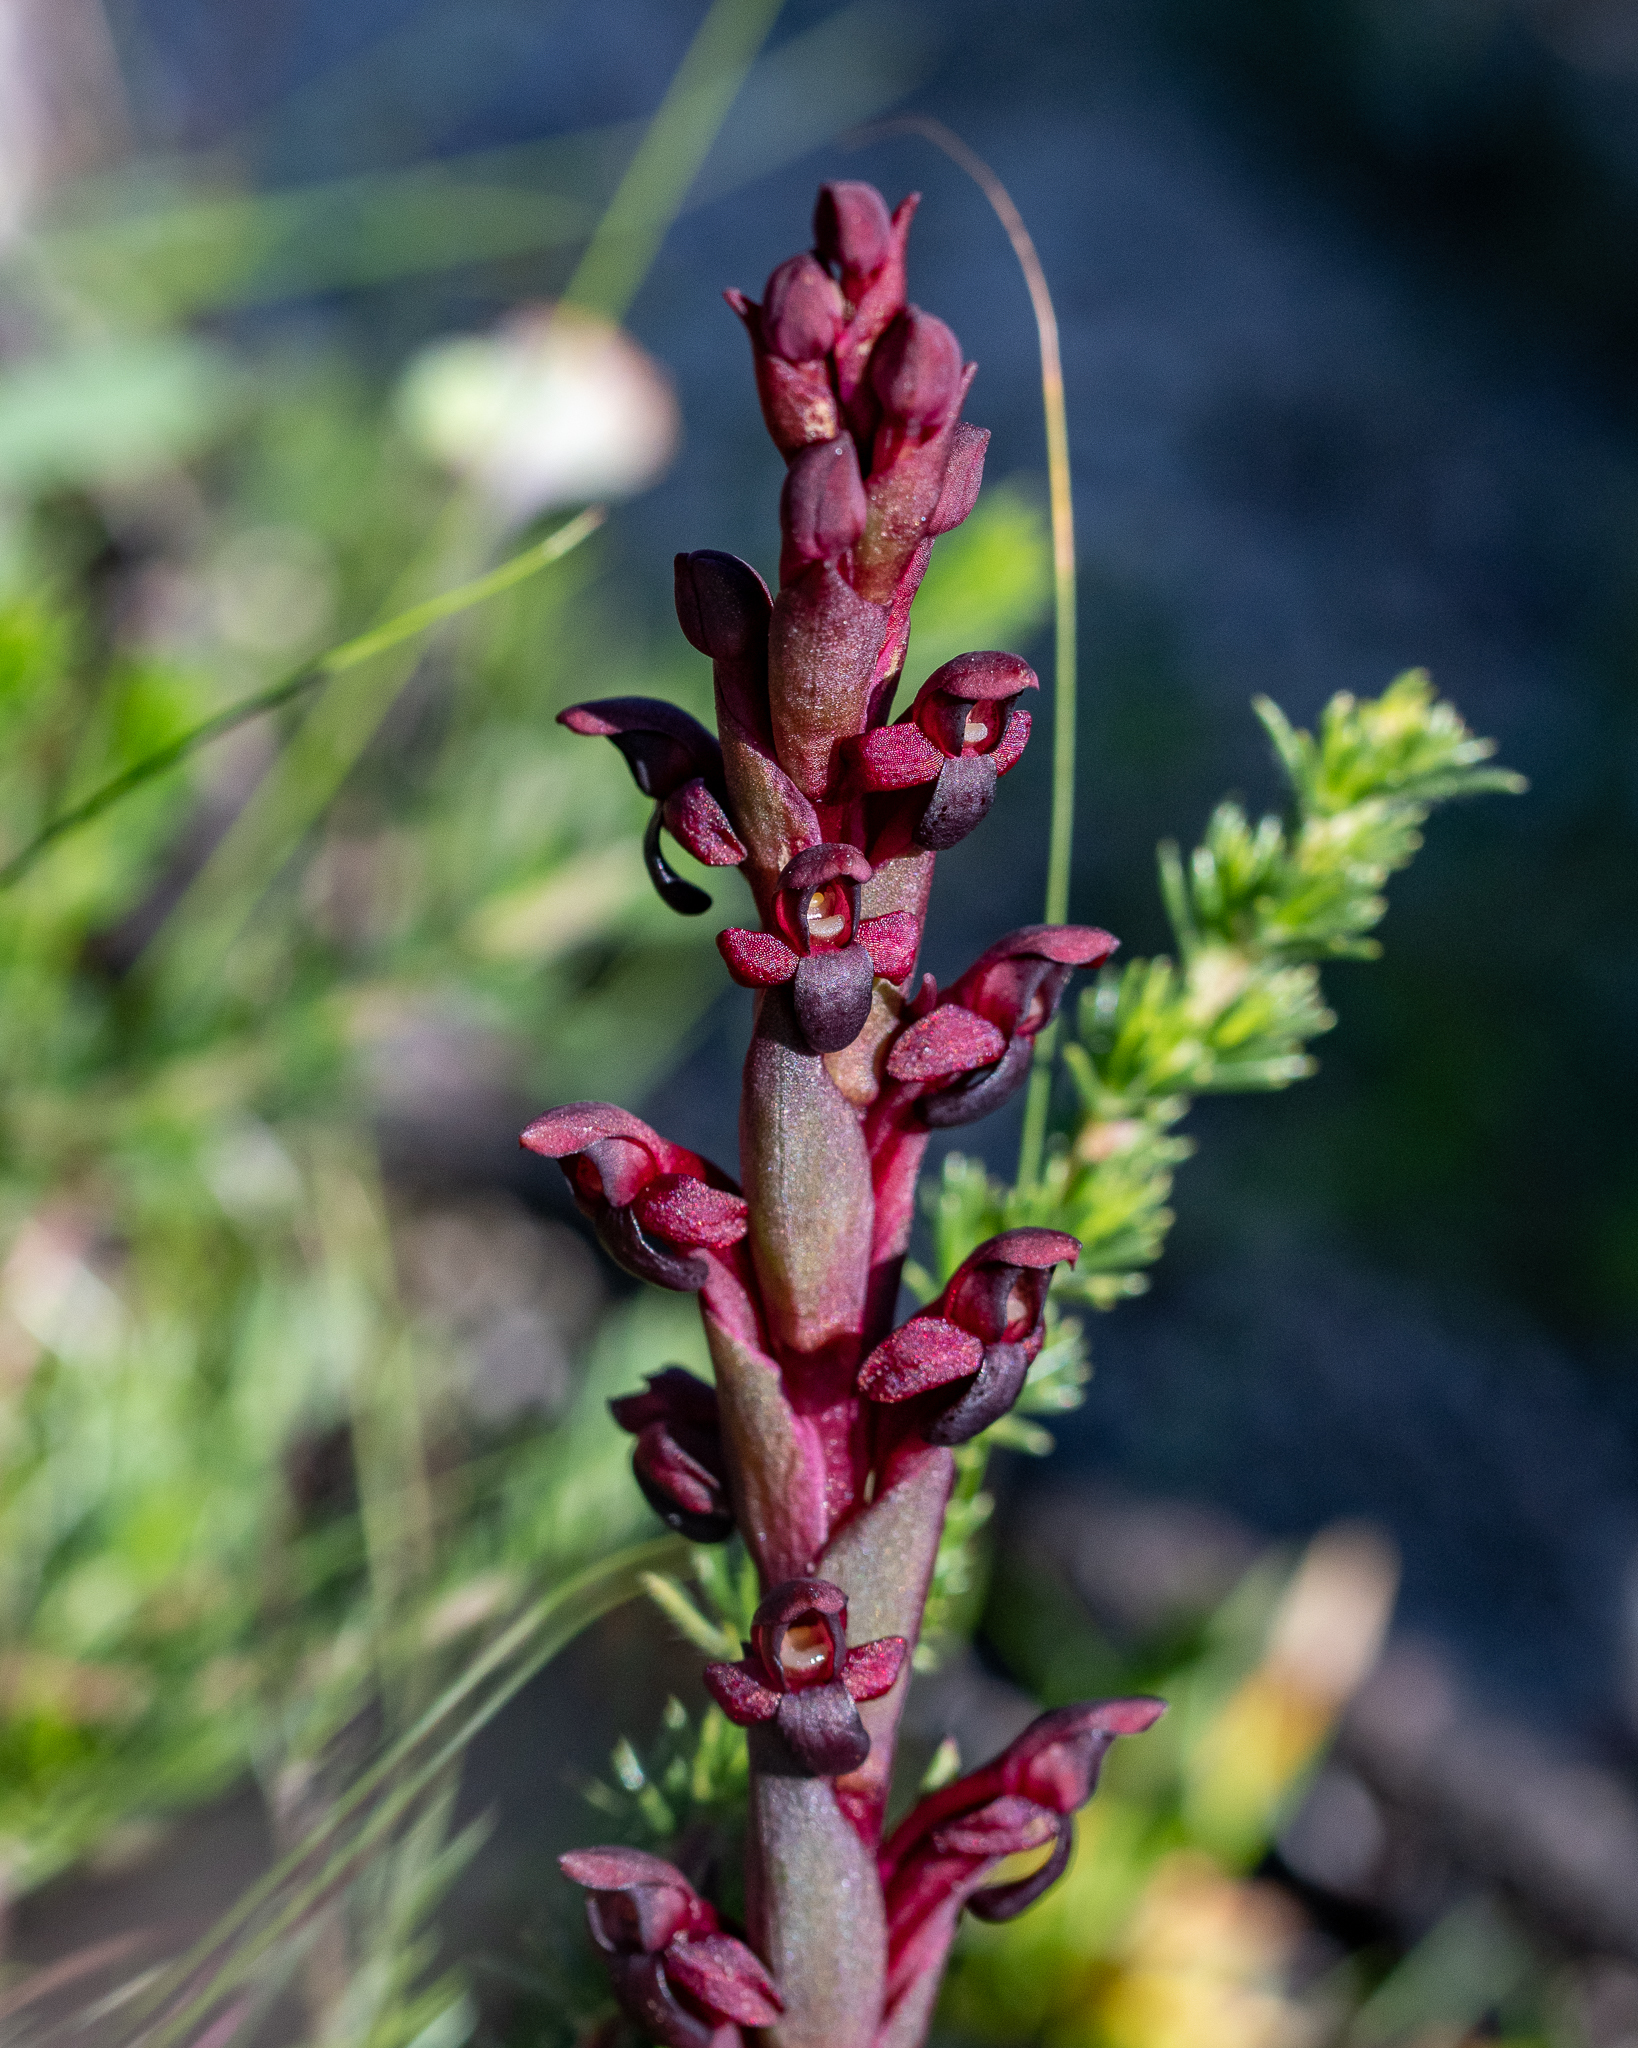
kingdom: Plantae
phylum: Tracheophyta
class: Liliopsida
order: Asparagales
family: Orchidaceae
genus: Disa
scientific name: Disa atrorubens
